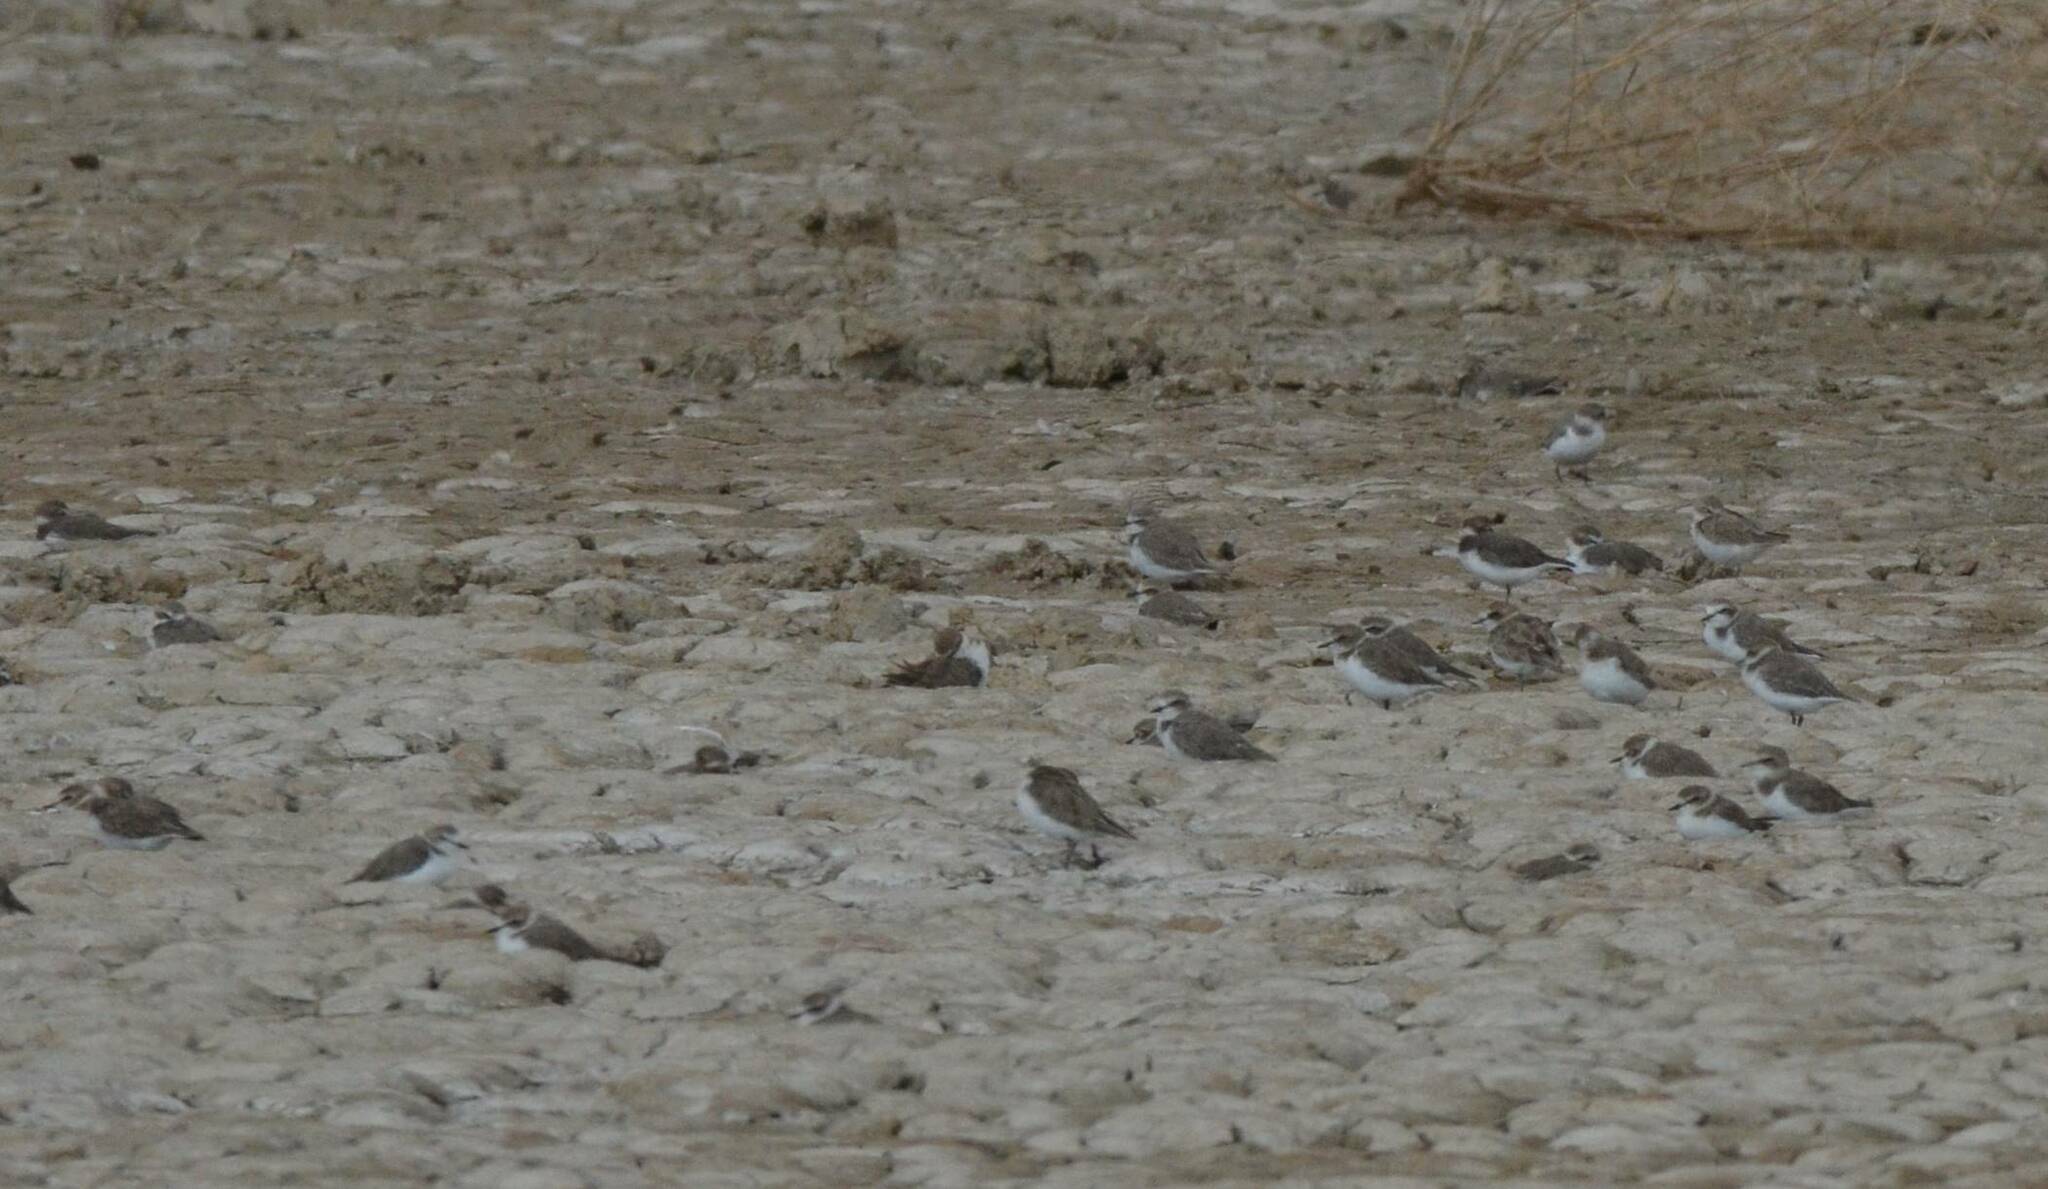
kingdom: Animalia
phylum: Chordata
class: Aves
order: Charadriiformes
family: Charadriidae
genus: Charadrius
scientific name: Charadrius alexandrinus
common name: Kentish plover
